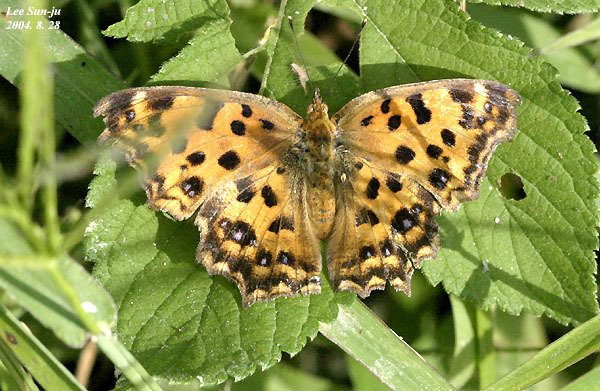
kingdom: Animalia
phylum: Arthropoda
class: Insecta
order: Lepidoptera
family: Nymphalidae
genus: Polygonia
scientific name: Polygonia c-aureum
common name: Asian comma
